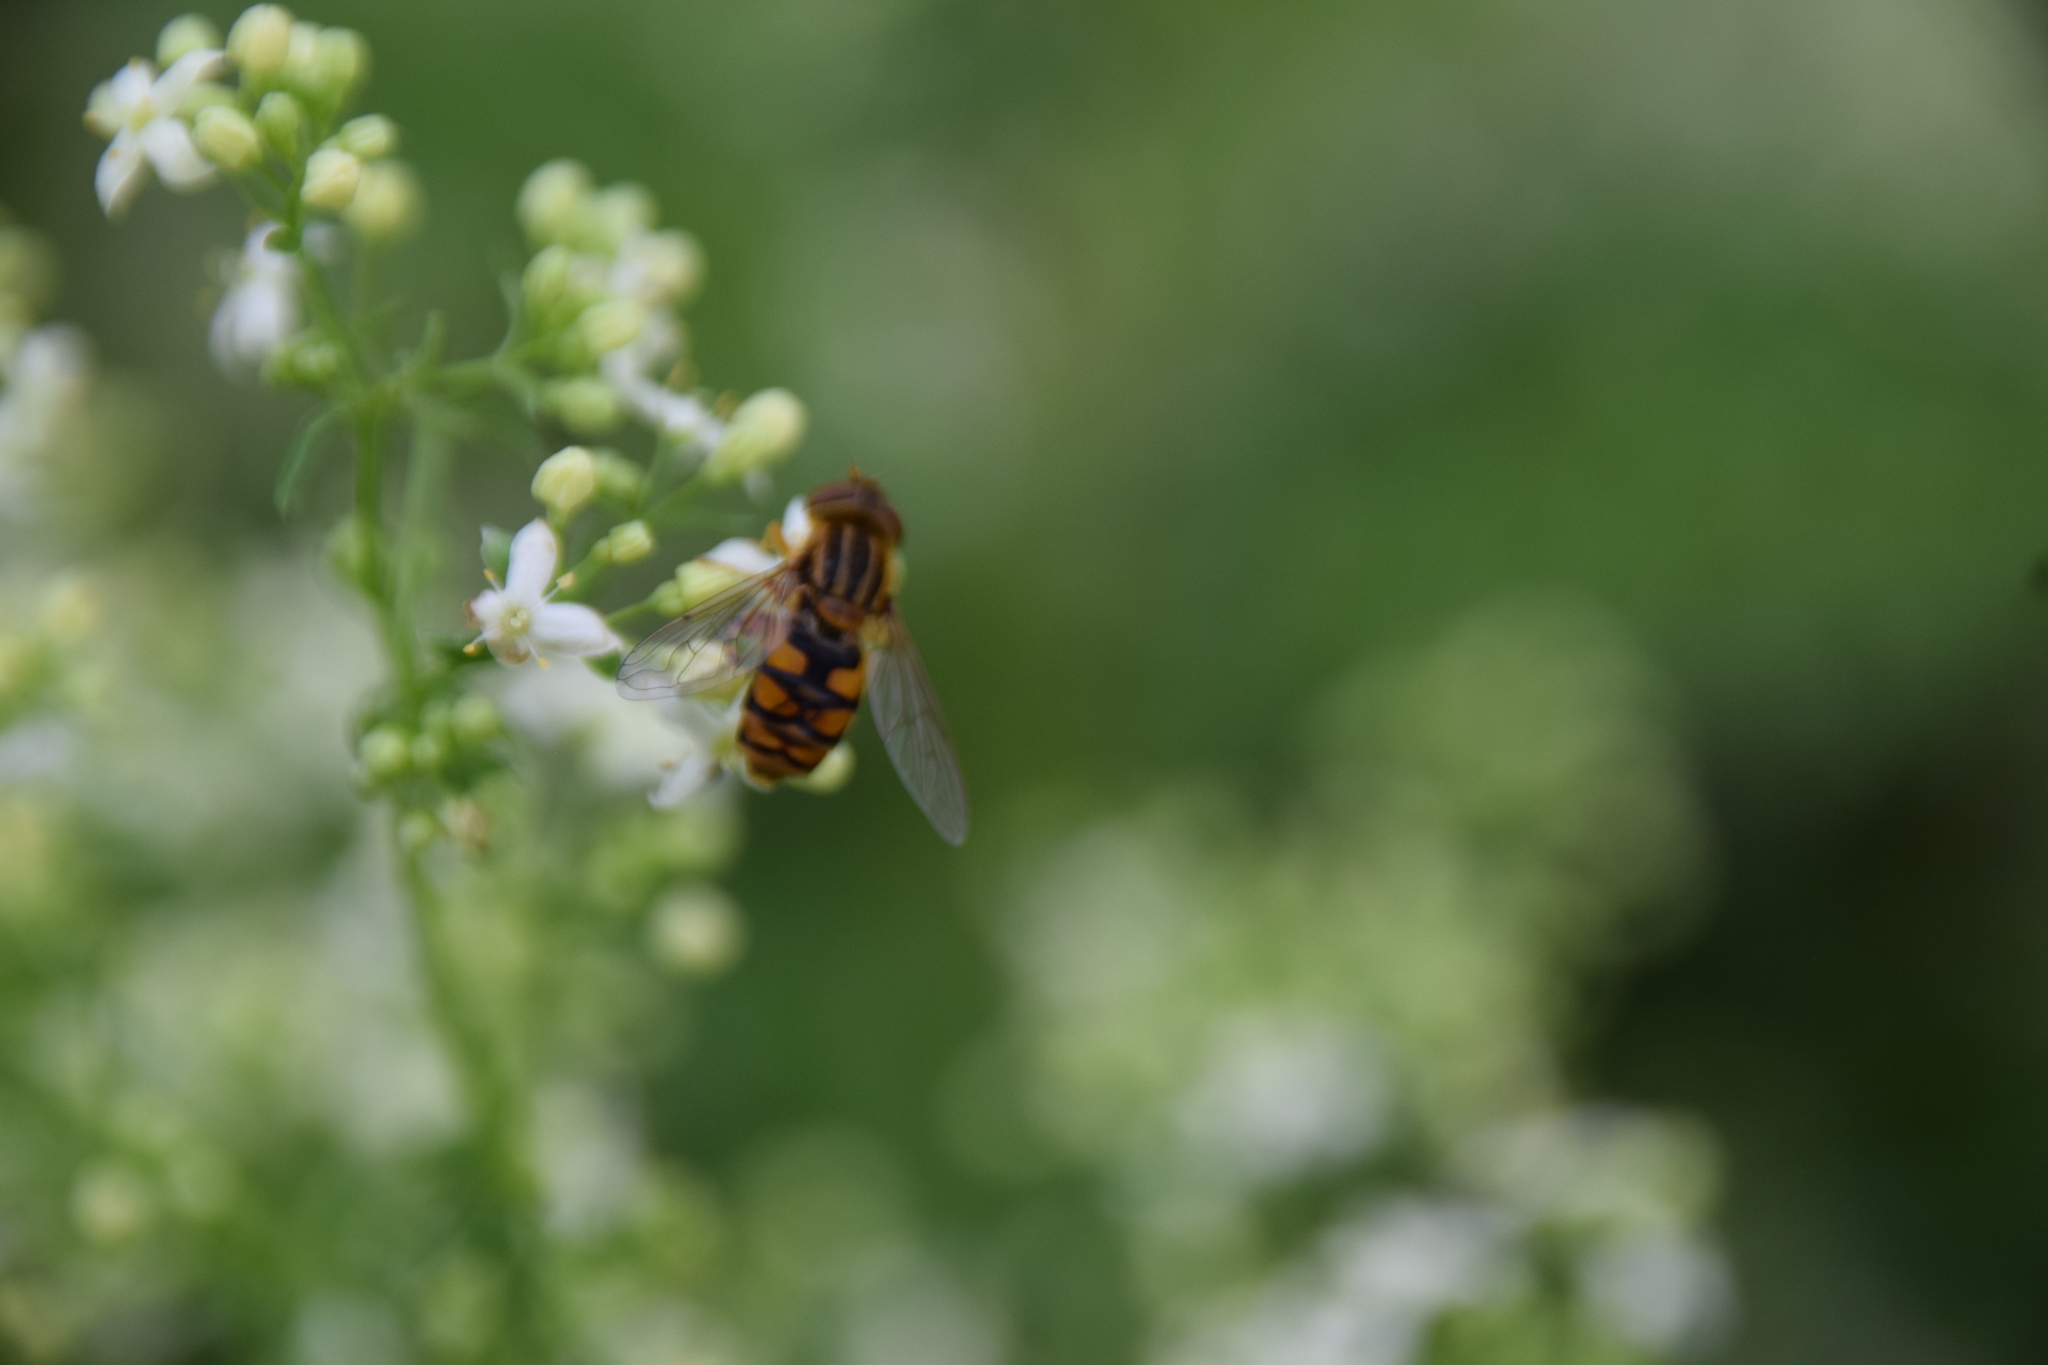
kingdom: Animalia
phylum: Arthropoda
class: Insecta
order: Diptera
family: Syrphidae
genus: Parhelophilus
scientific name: Parhelophilus laetus
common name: Common bog fly
